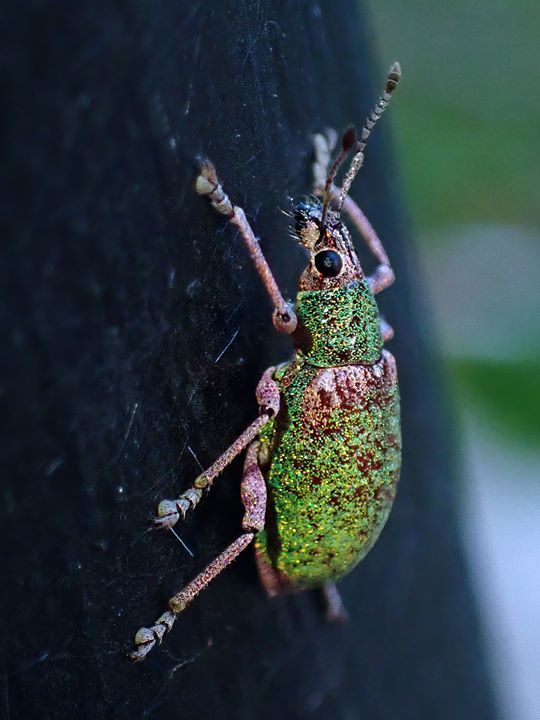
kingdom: Animalia
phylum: Arthropoda
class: Insecta
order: Coleoptera
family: Curculionidae
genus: Exophthalmus
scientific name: Exophthalmus carneipes
